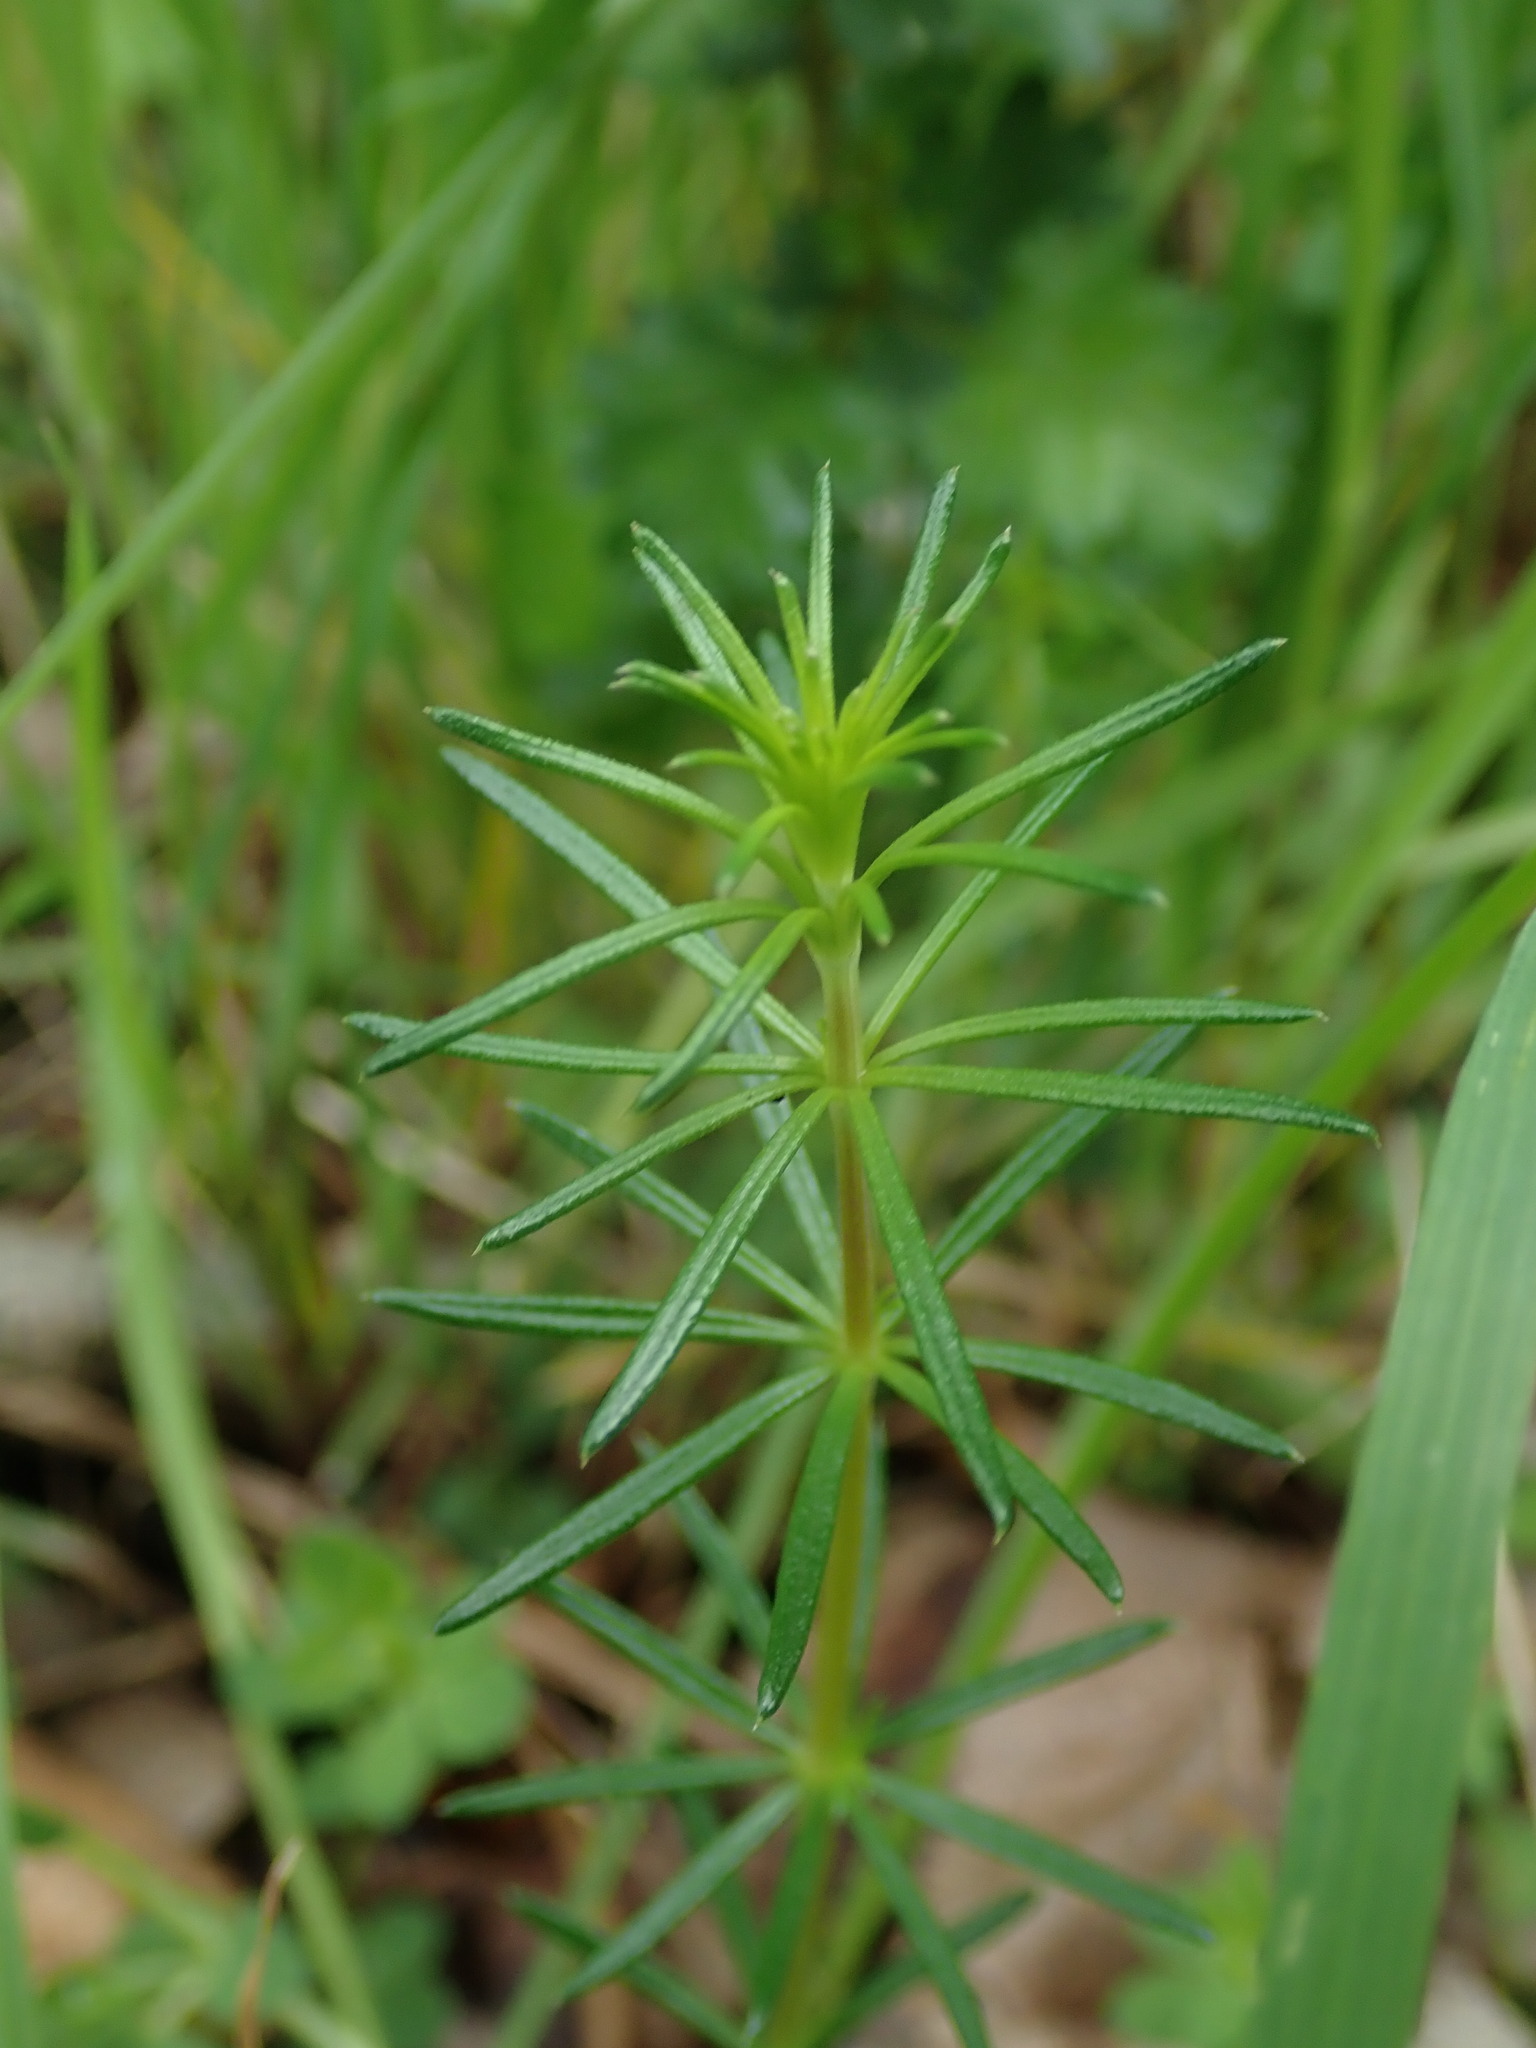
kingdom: Plantae
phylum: Tracheophyta
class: Magnoliopsida
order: Gentianales
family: Rubiaceae
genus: Galium
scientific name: Galium verum
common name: Lady's bedstraw
